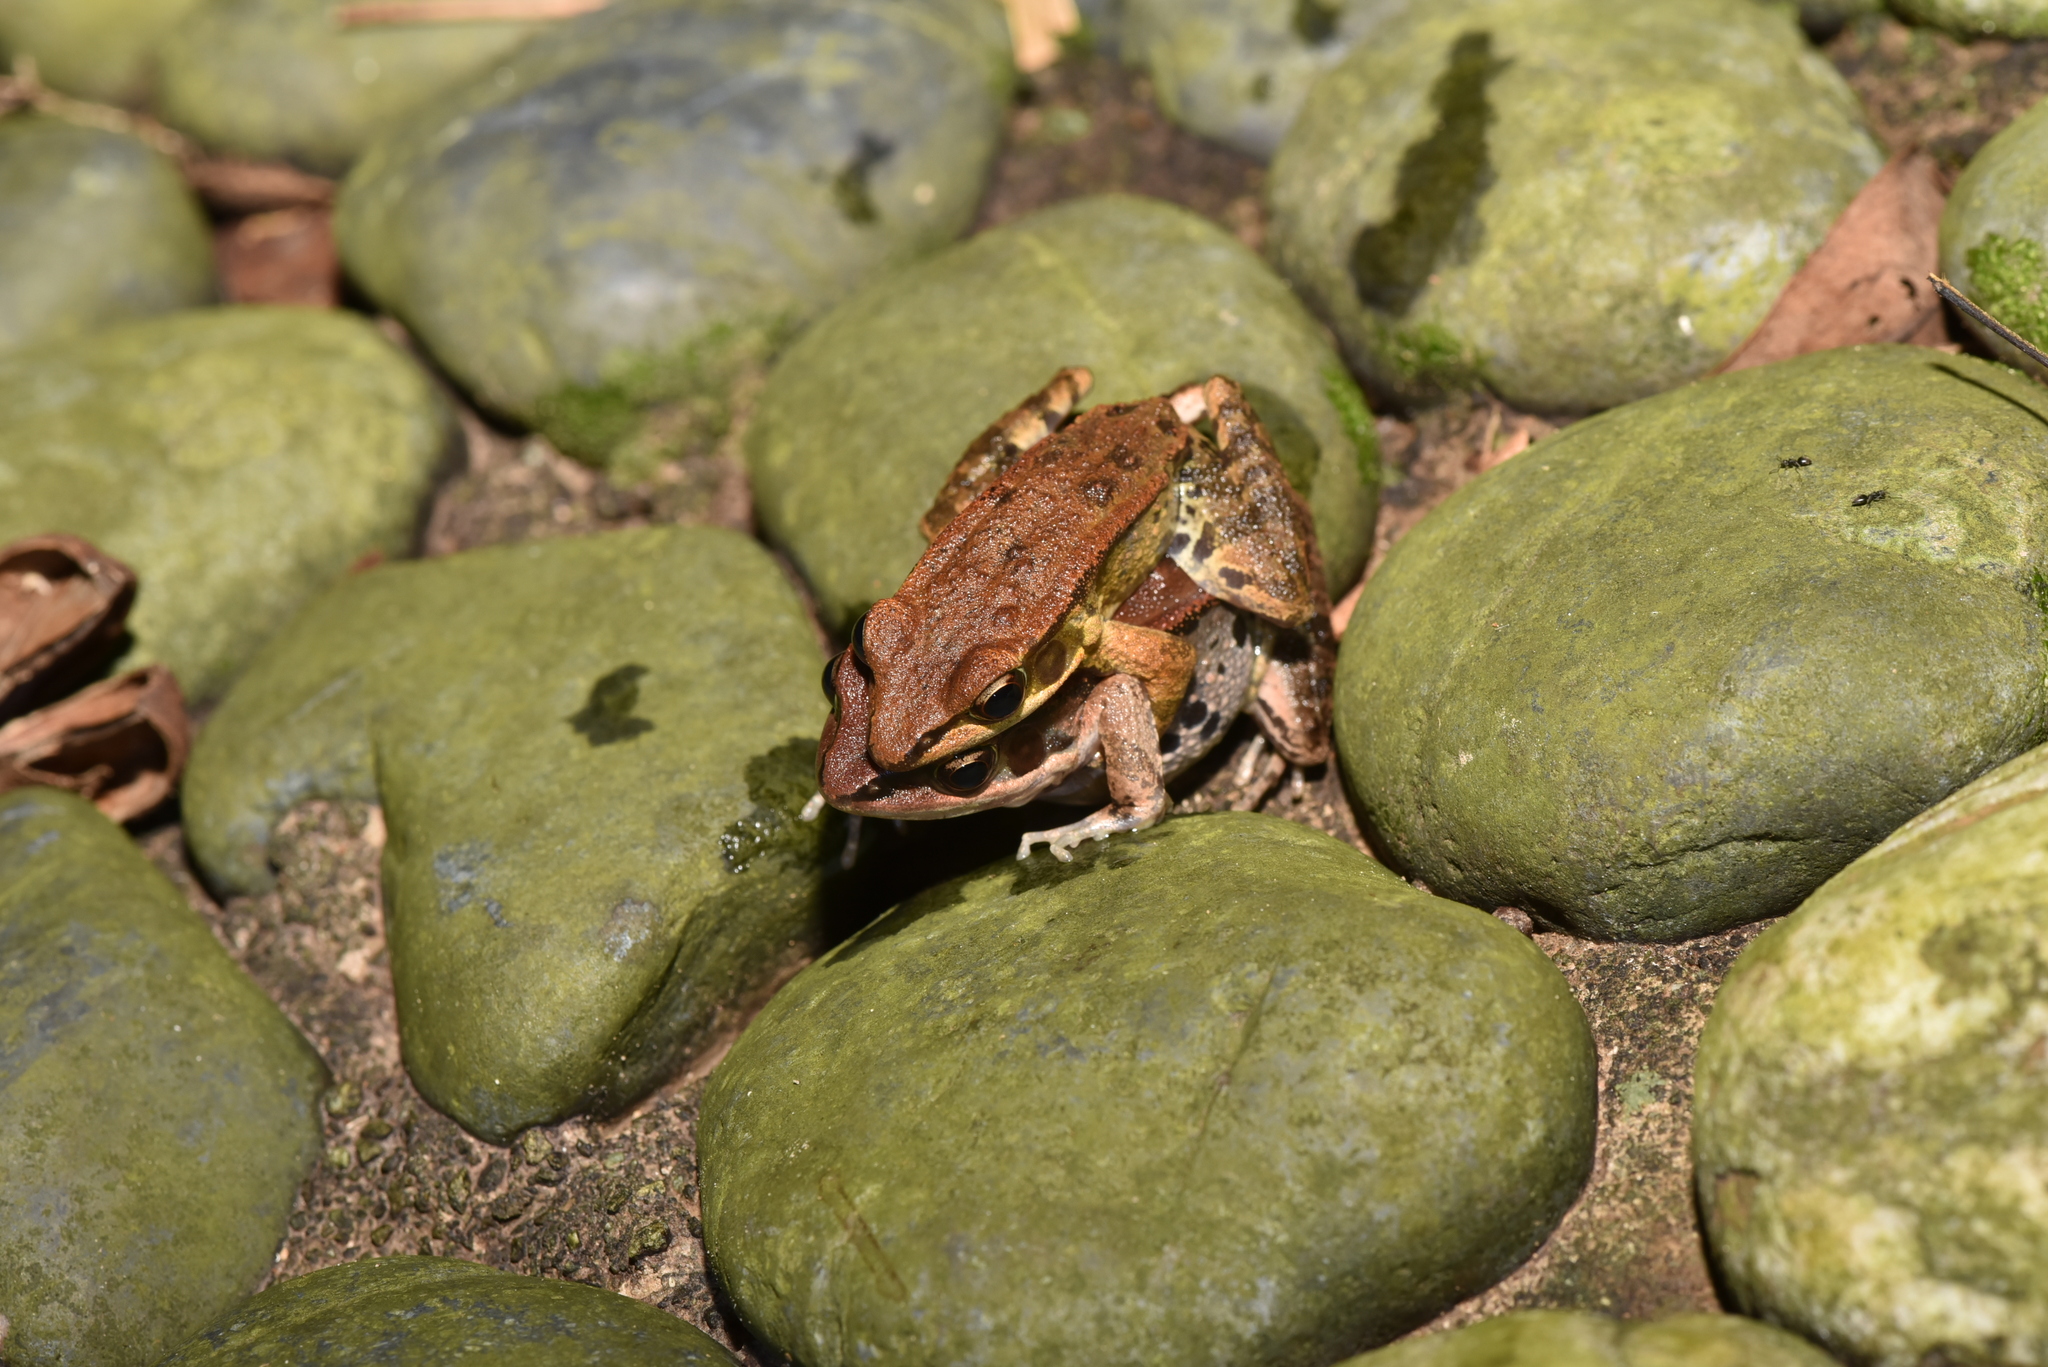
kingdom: Animalia
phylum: Chordata
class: Amphibia
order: Anura
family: Ranidae
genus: Hylarana
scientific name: Hylarana latouchii
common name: Broad-folded frog
